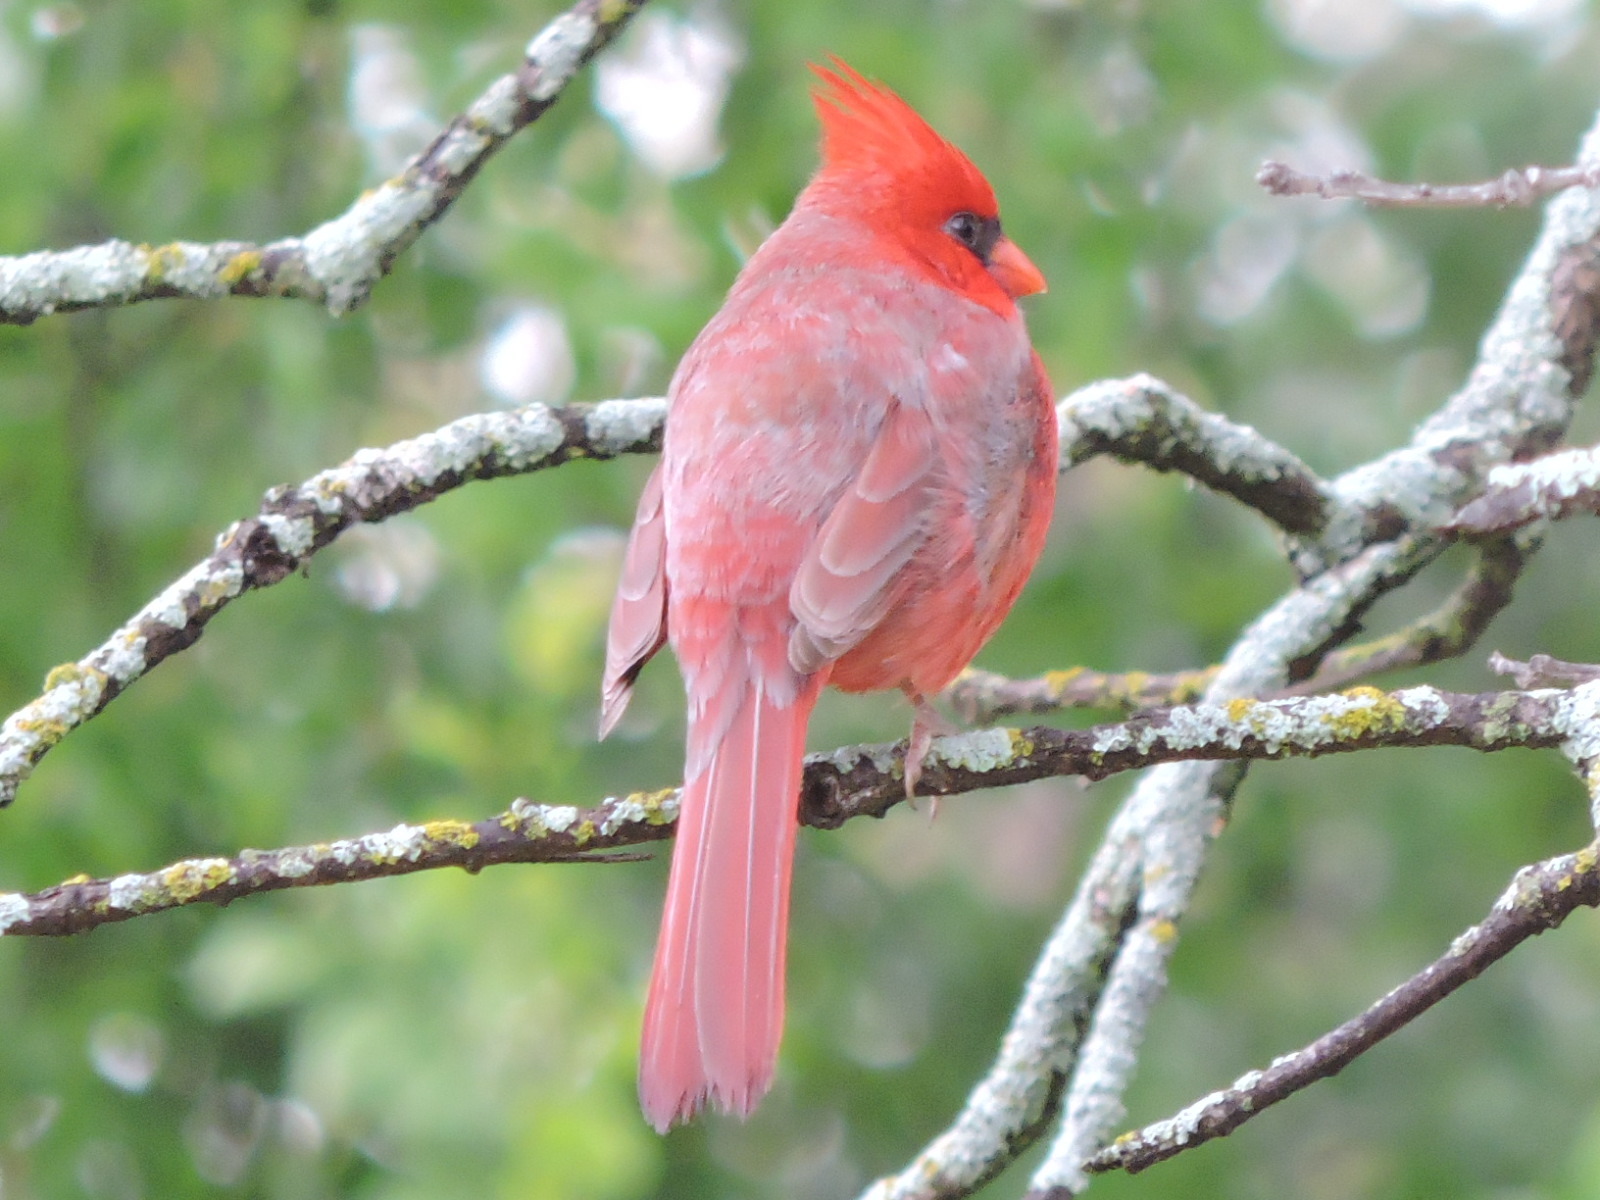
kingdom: Animalia
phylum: Chordata
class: Aves
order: Passeriformes
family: Cardinalidae
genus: Cardinalis
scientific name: Cardinalis cardinalis
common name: Northern cardinal
